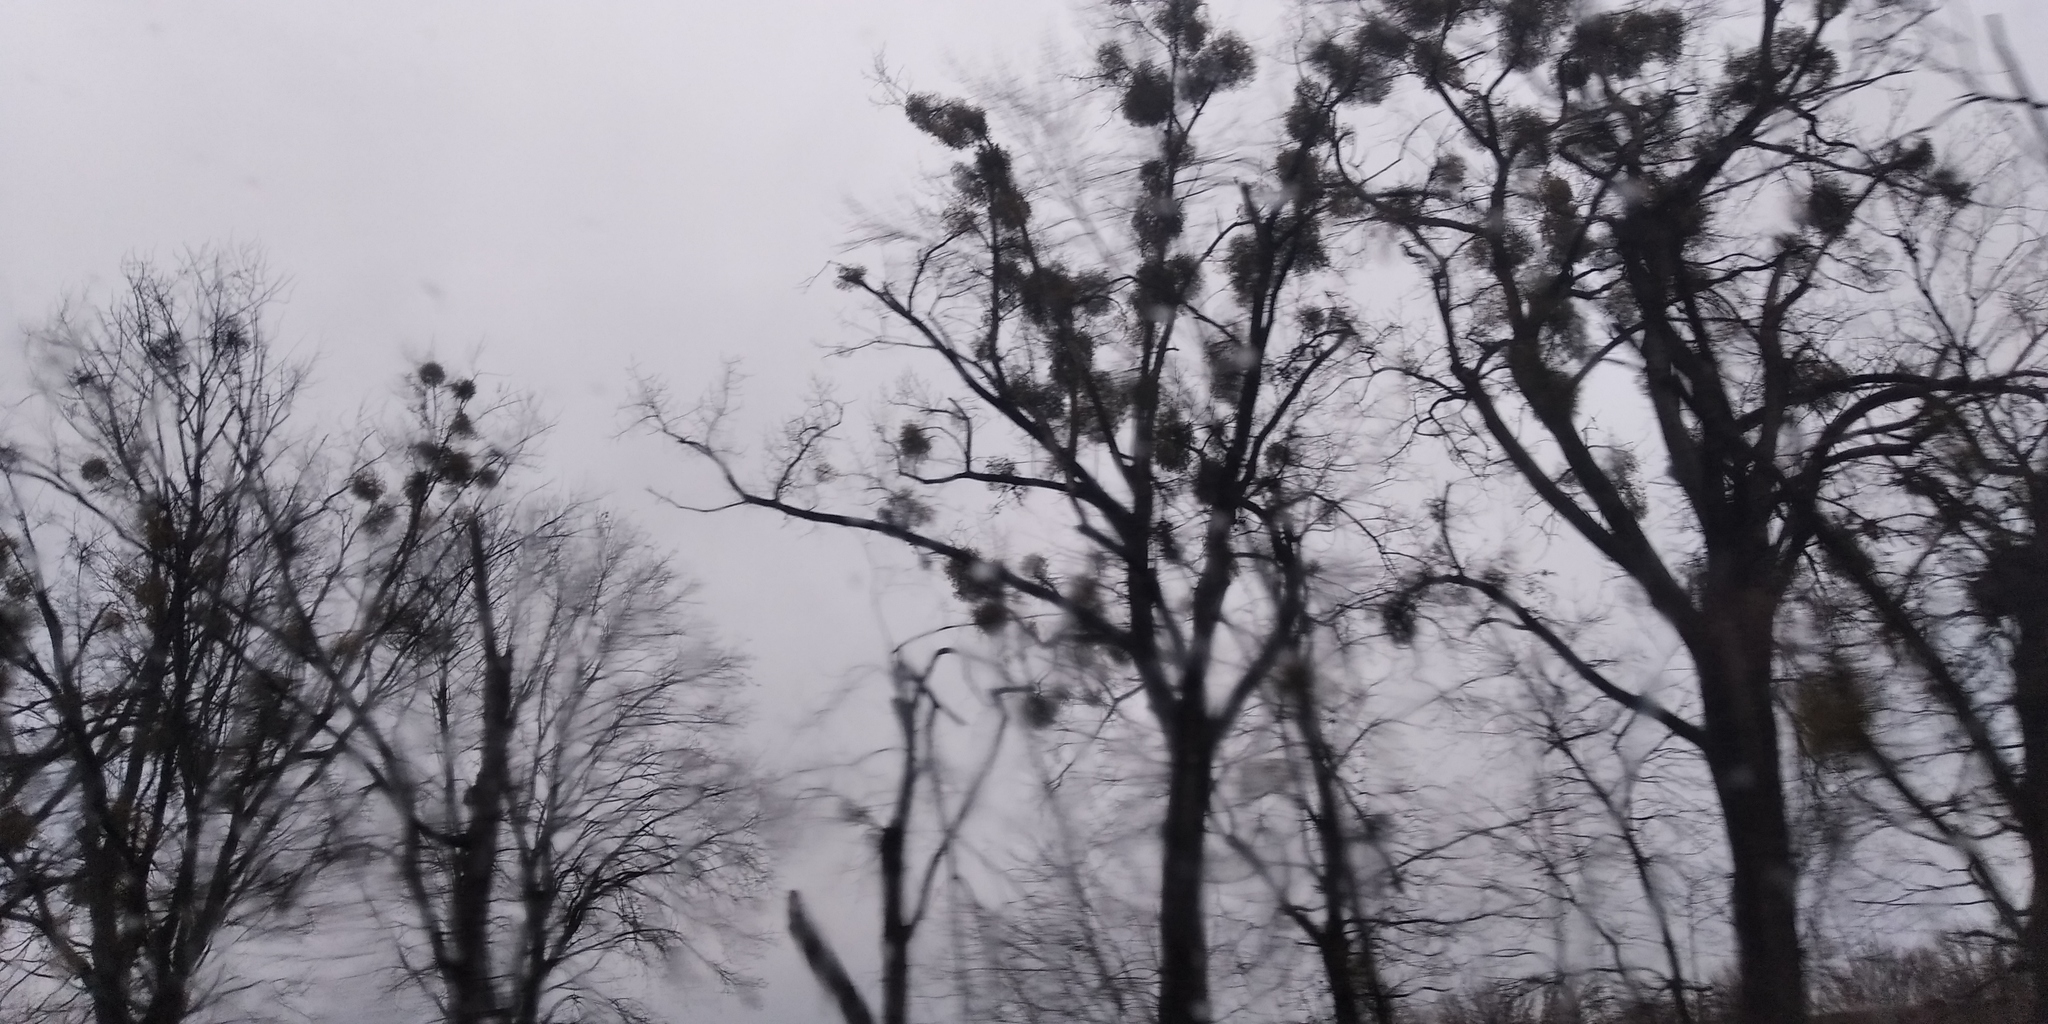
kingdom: Plantae
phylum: Tracheophyta
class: Magnoliopsida
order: Santalales
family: Viscaceae
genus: Viscum
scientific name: Viscum album
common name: Mistletoe
